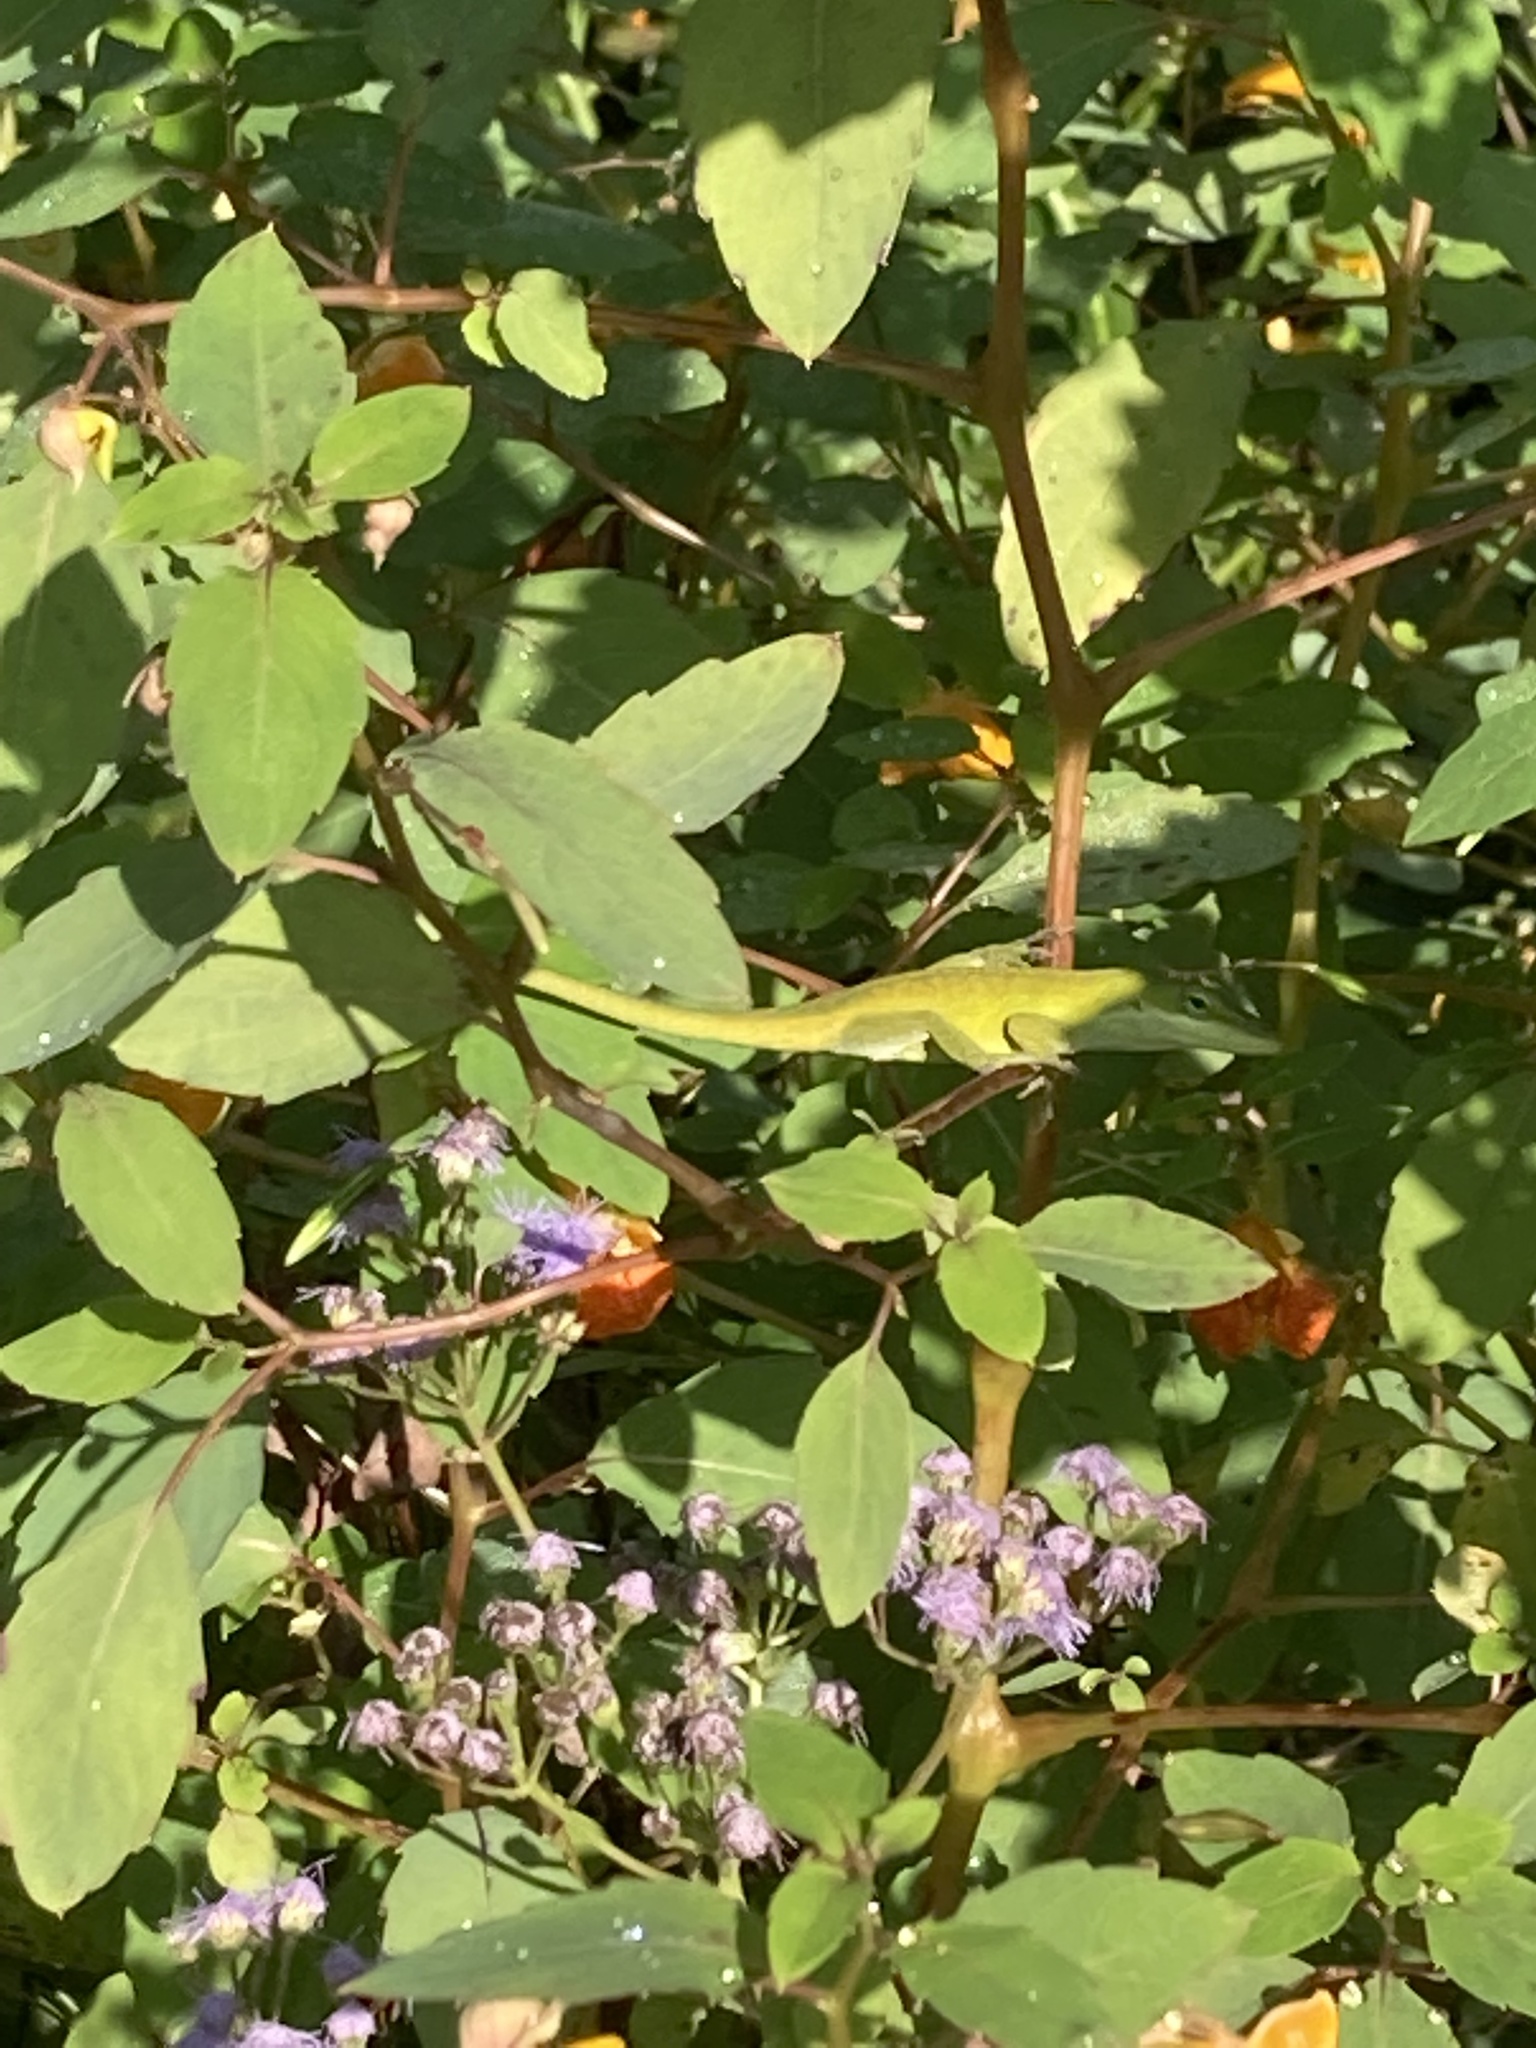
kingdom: Animalia
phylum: Chordata
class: Squamata
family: Dactyloidae
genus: Anolis
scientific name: Anolis carolinensis
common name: Green anole
